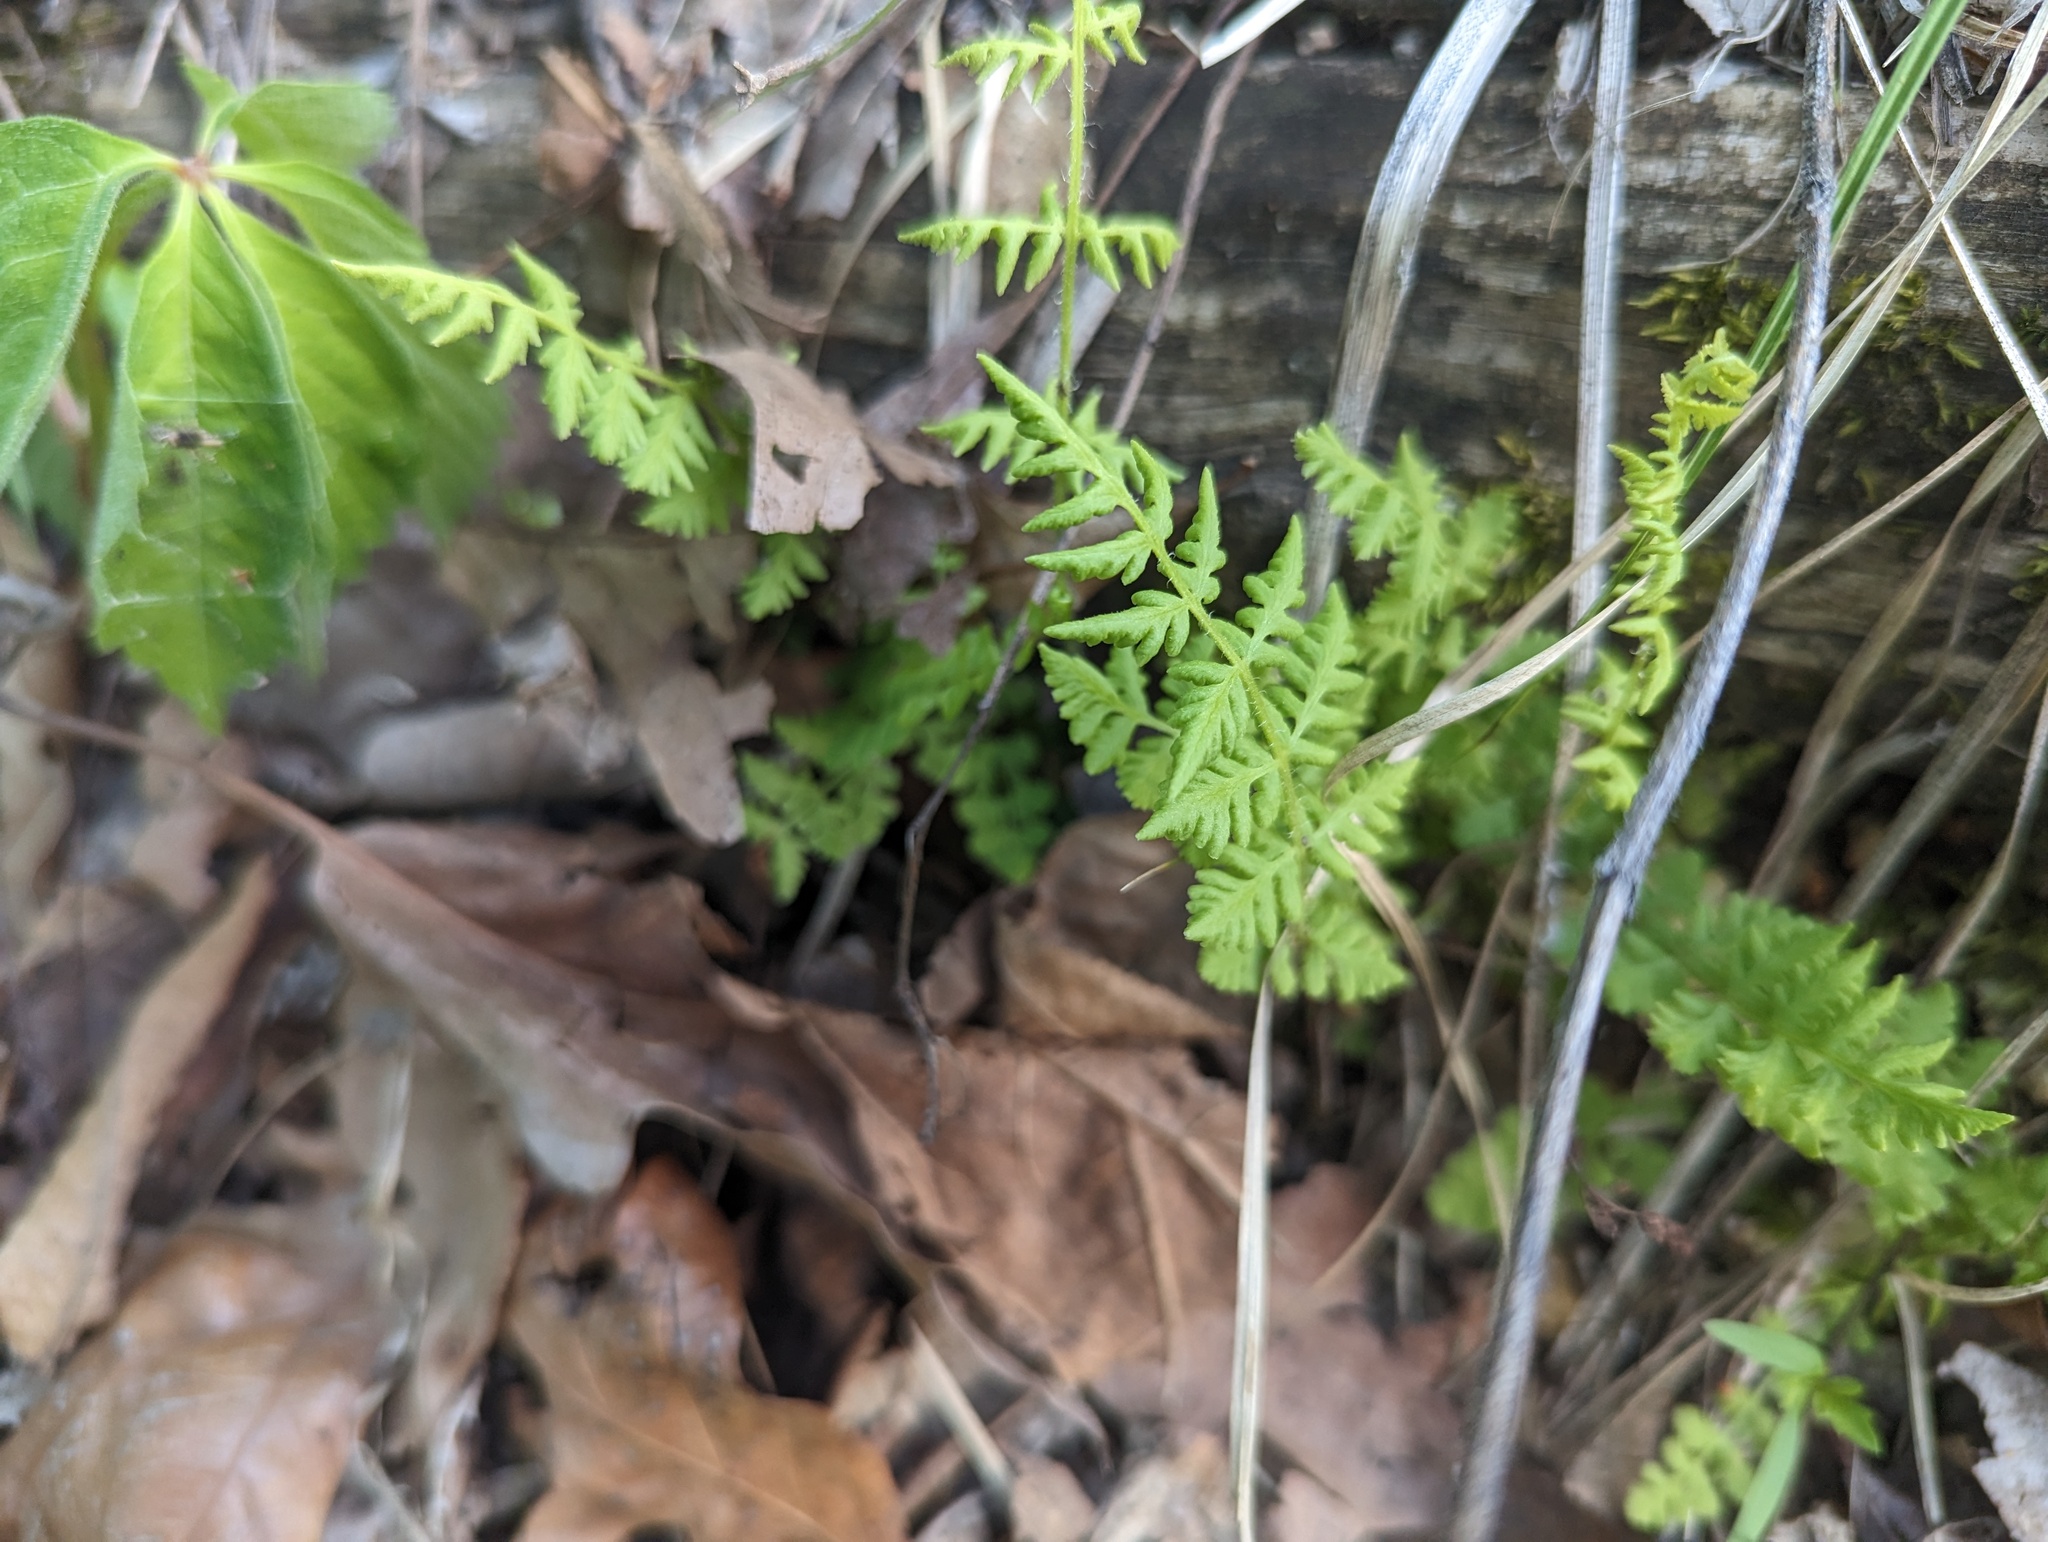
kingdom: Plantae
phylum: Tracheophyta
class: Polypodiopsida
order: Polypodiales
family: Woodsiaceae
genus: Physematium
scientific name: Physematium obtusum
